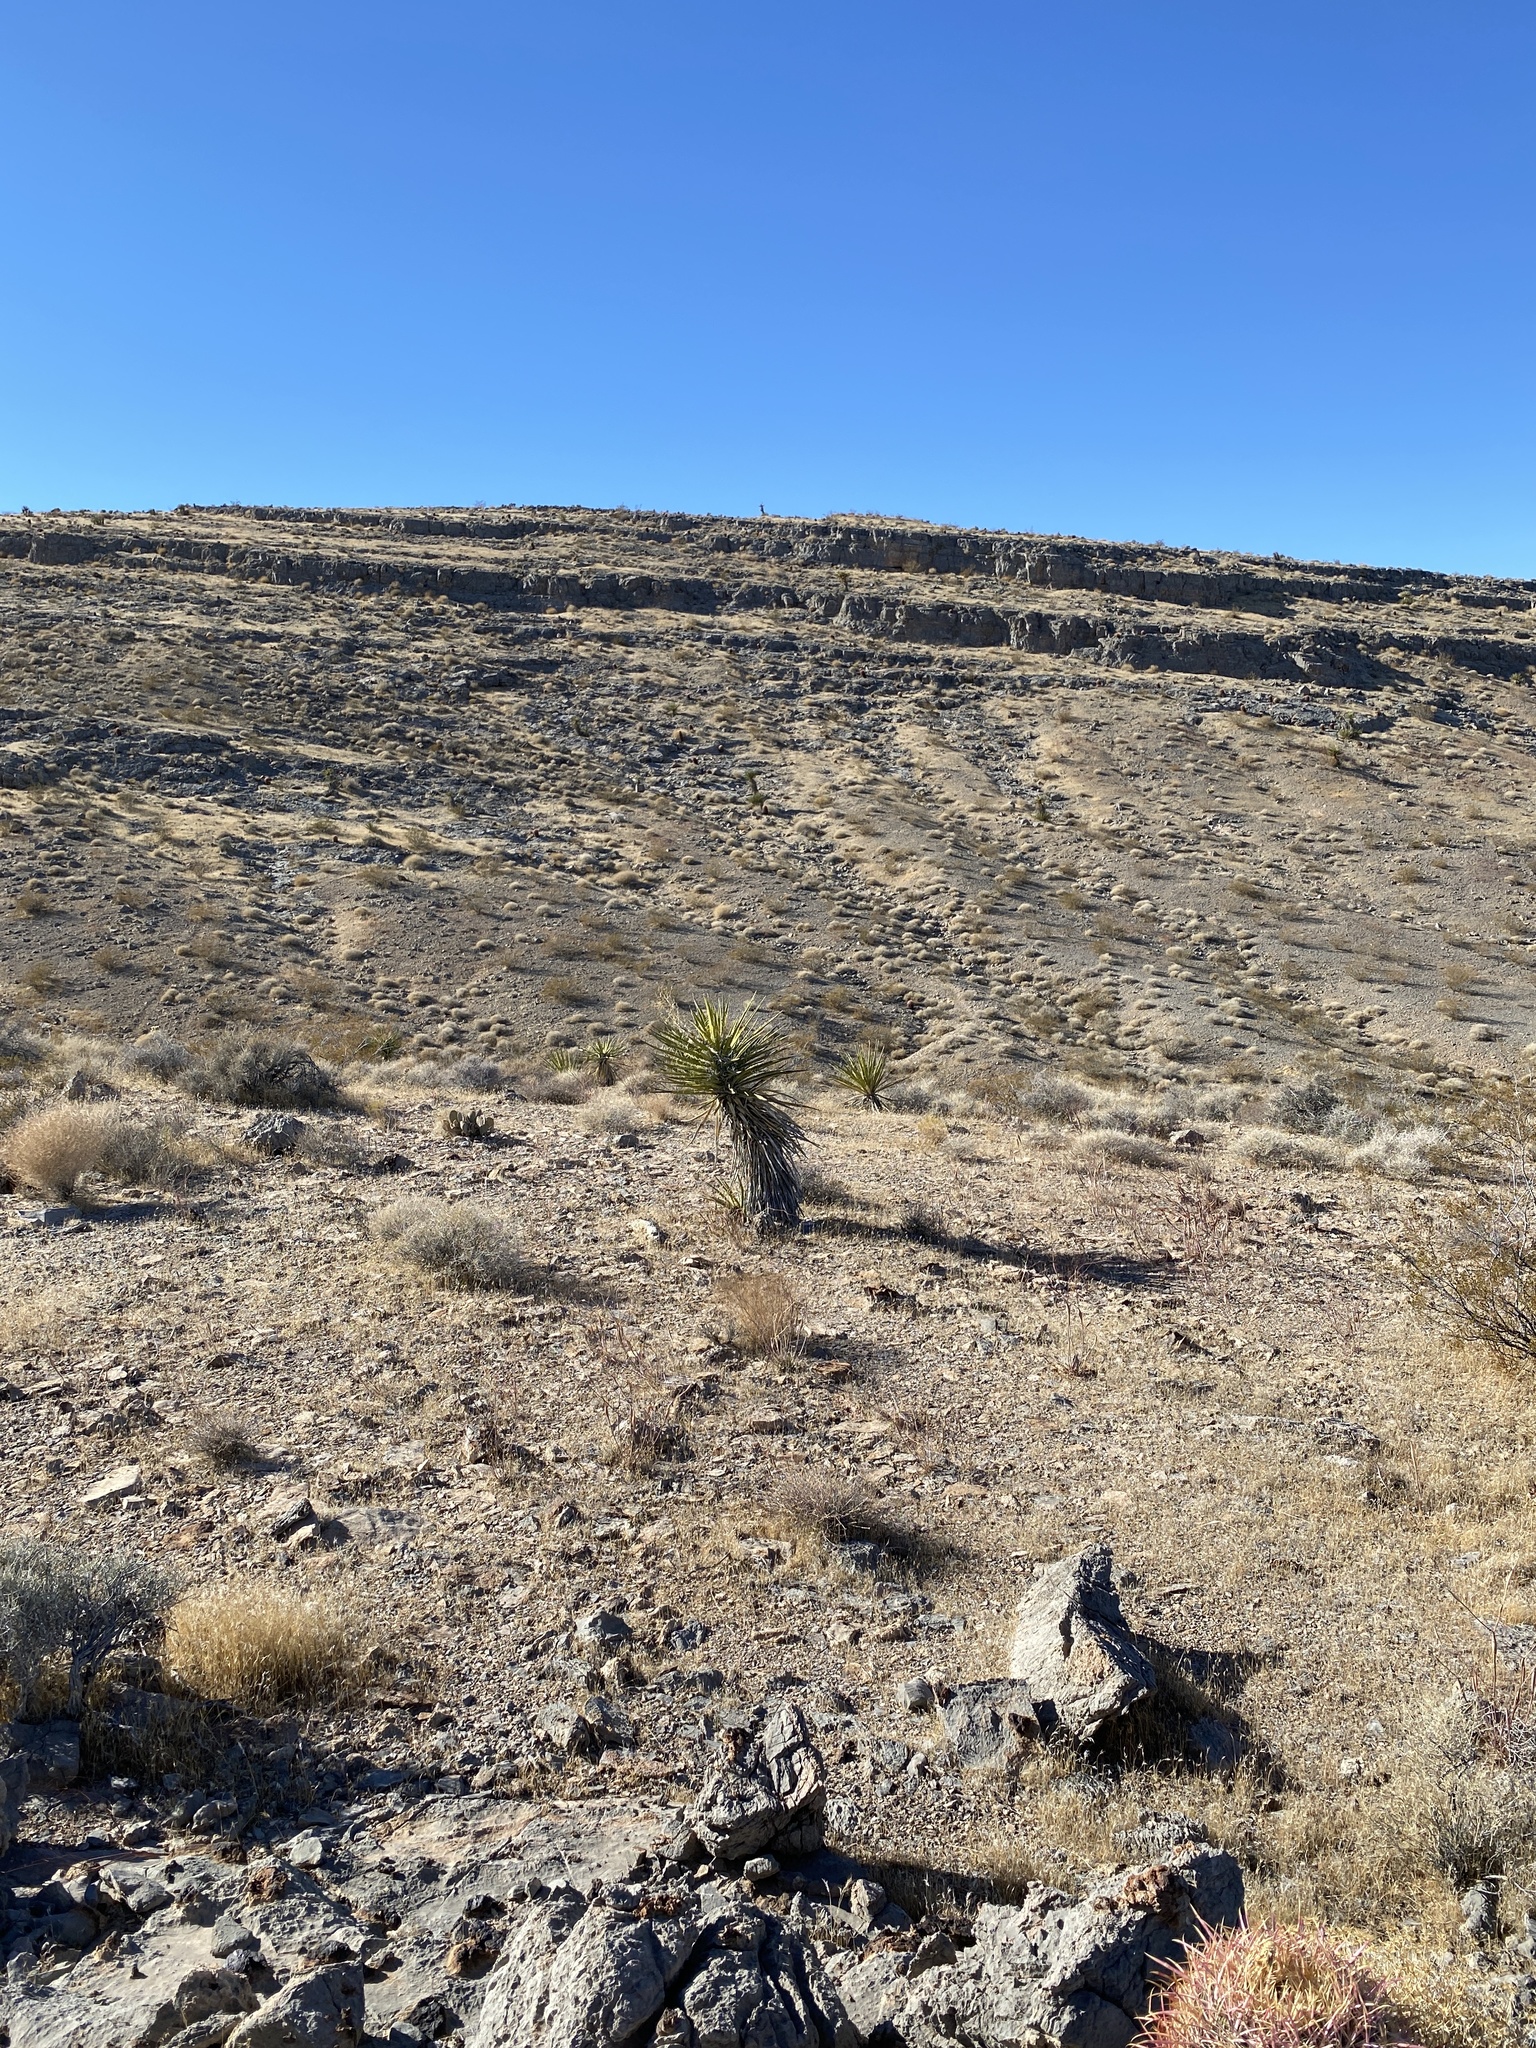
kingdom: Plantae
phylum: Tracheophyta
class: Liliopsida
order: Asparagales
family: Asparagaceae
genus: Yucca
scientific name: Yucca schidigera
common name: Mojave yucca
